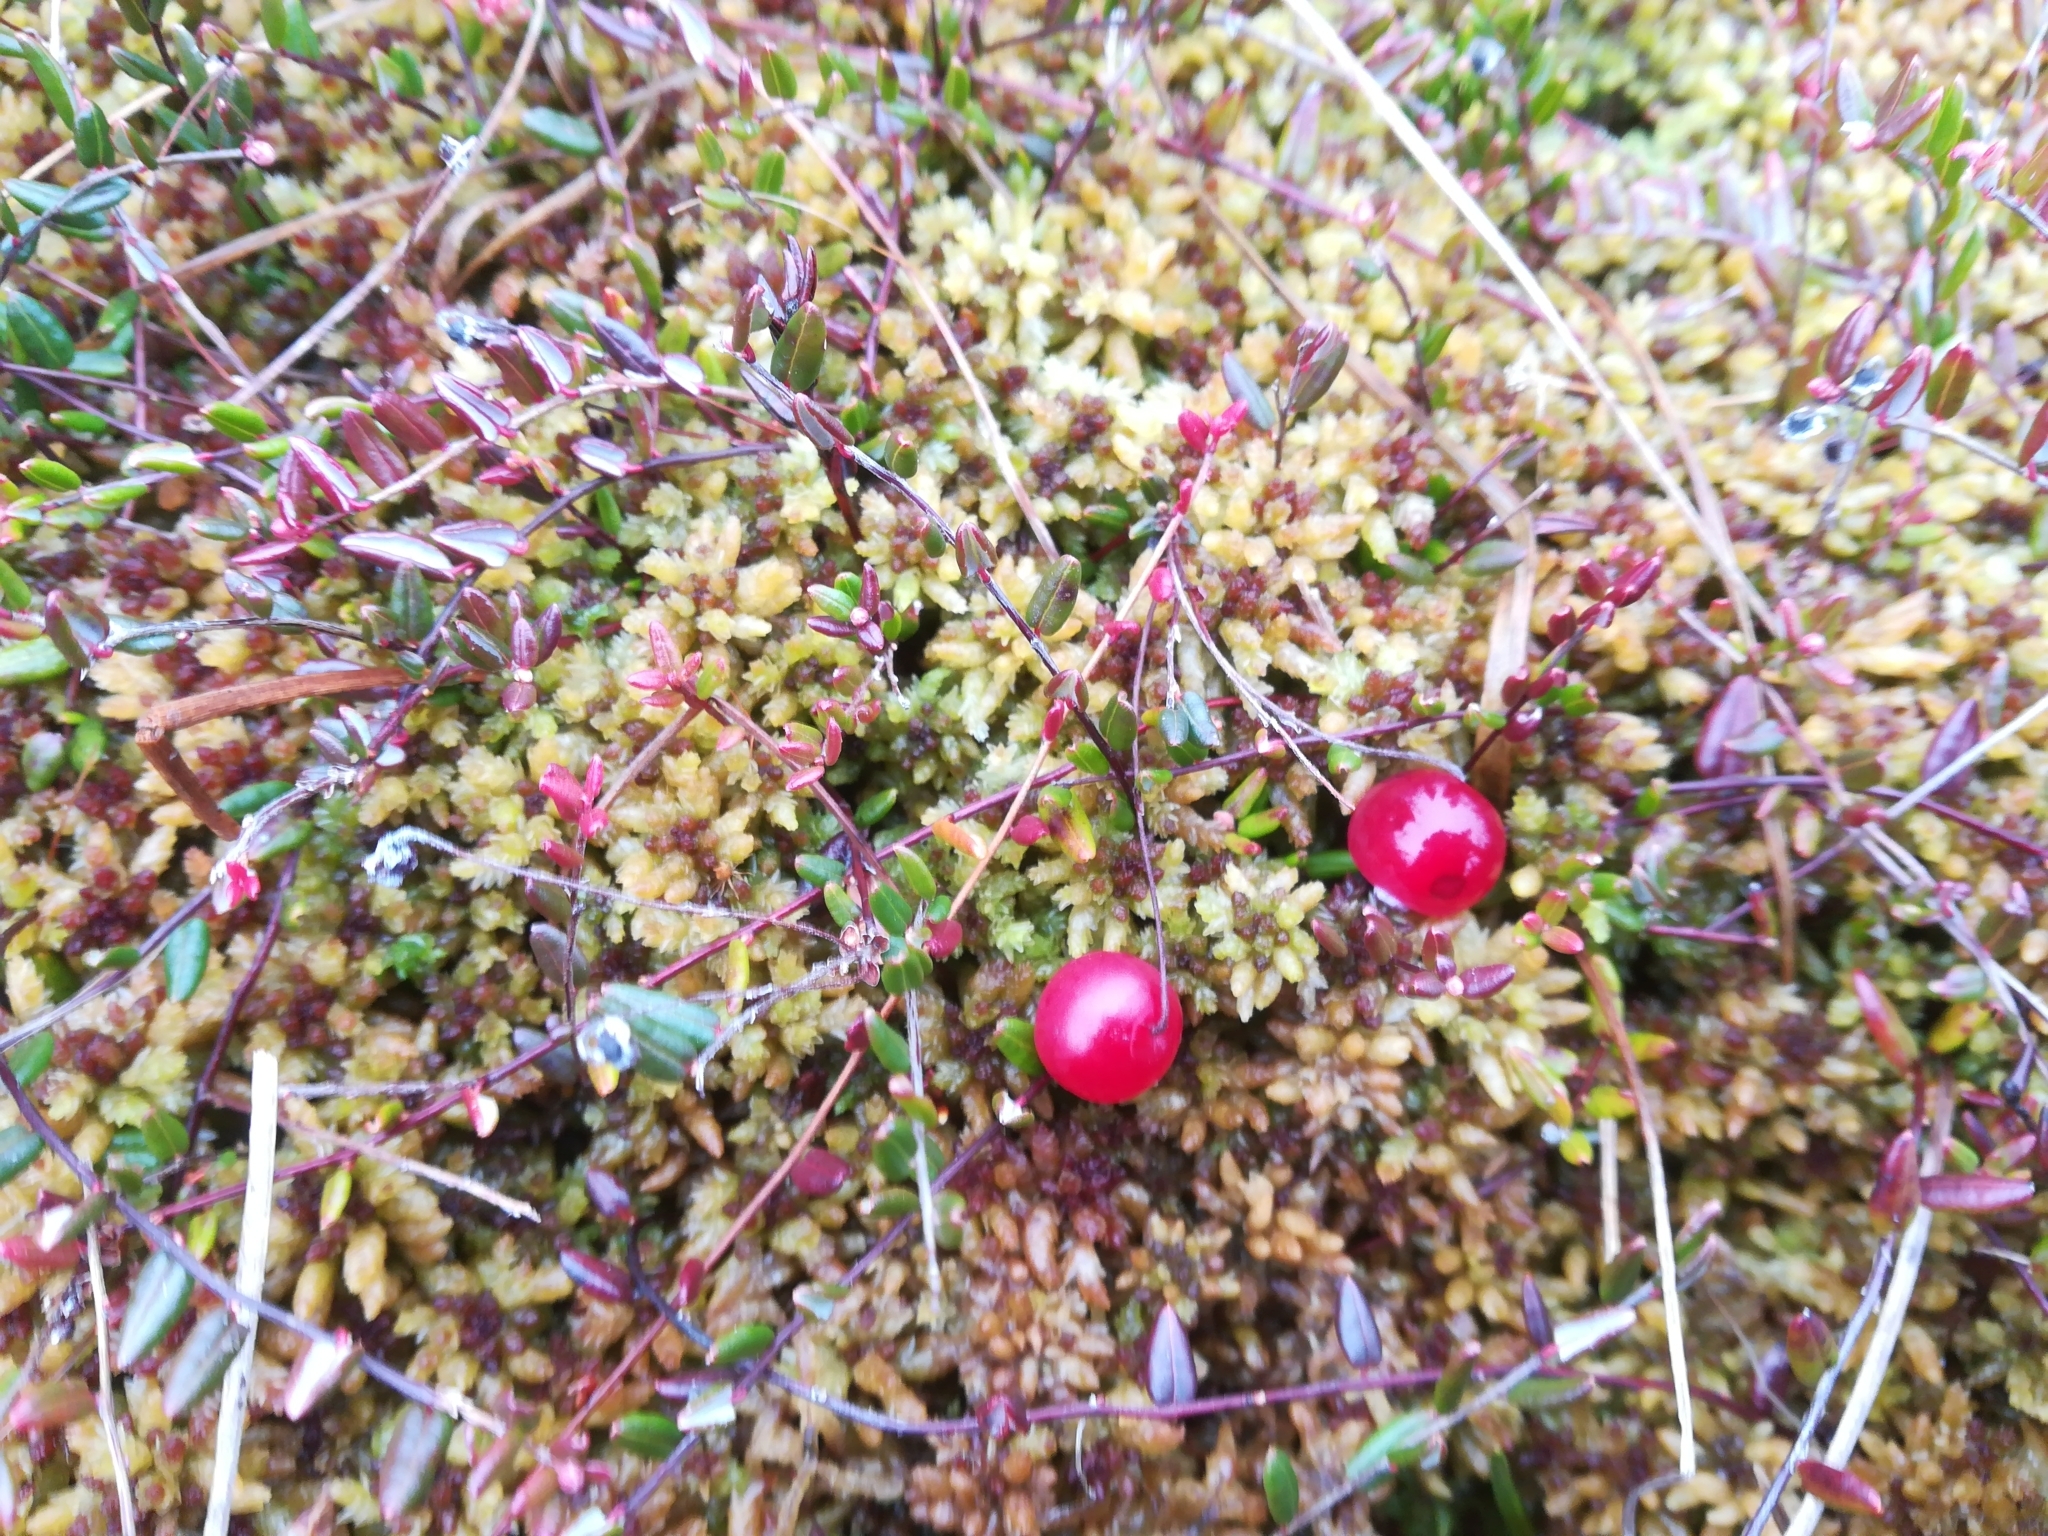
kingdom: Plantae
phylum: Tracheophyta
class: Magnoliopsida
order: Ericales
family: Ericaceae
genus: Vaccinium
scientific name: Vaccinium oxycoccos
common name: Cranberry
